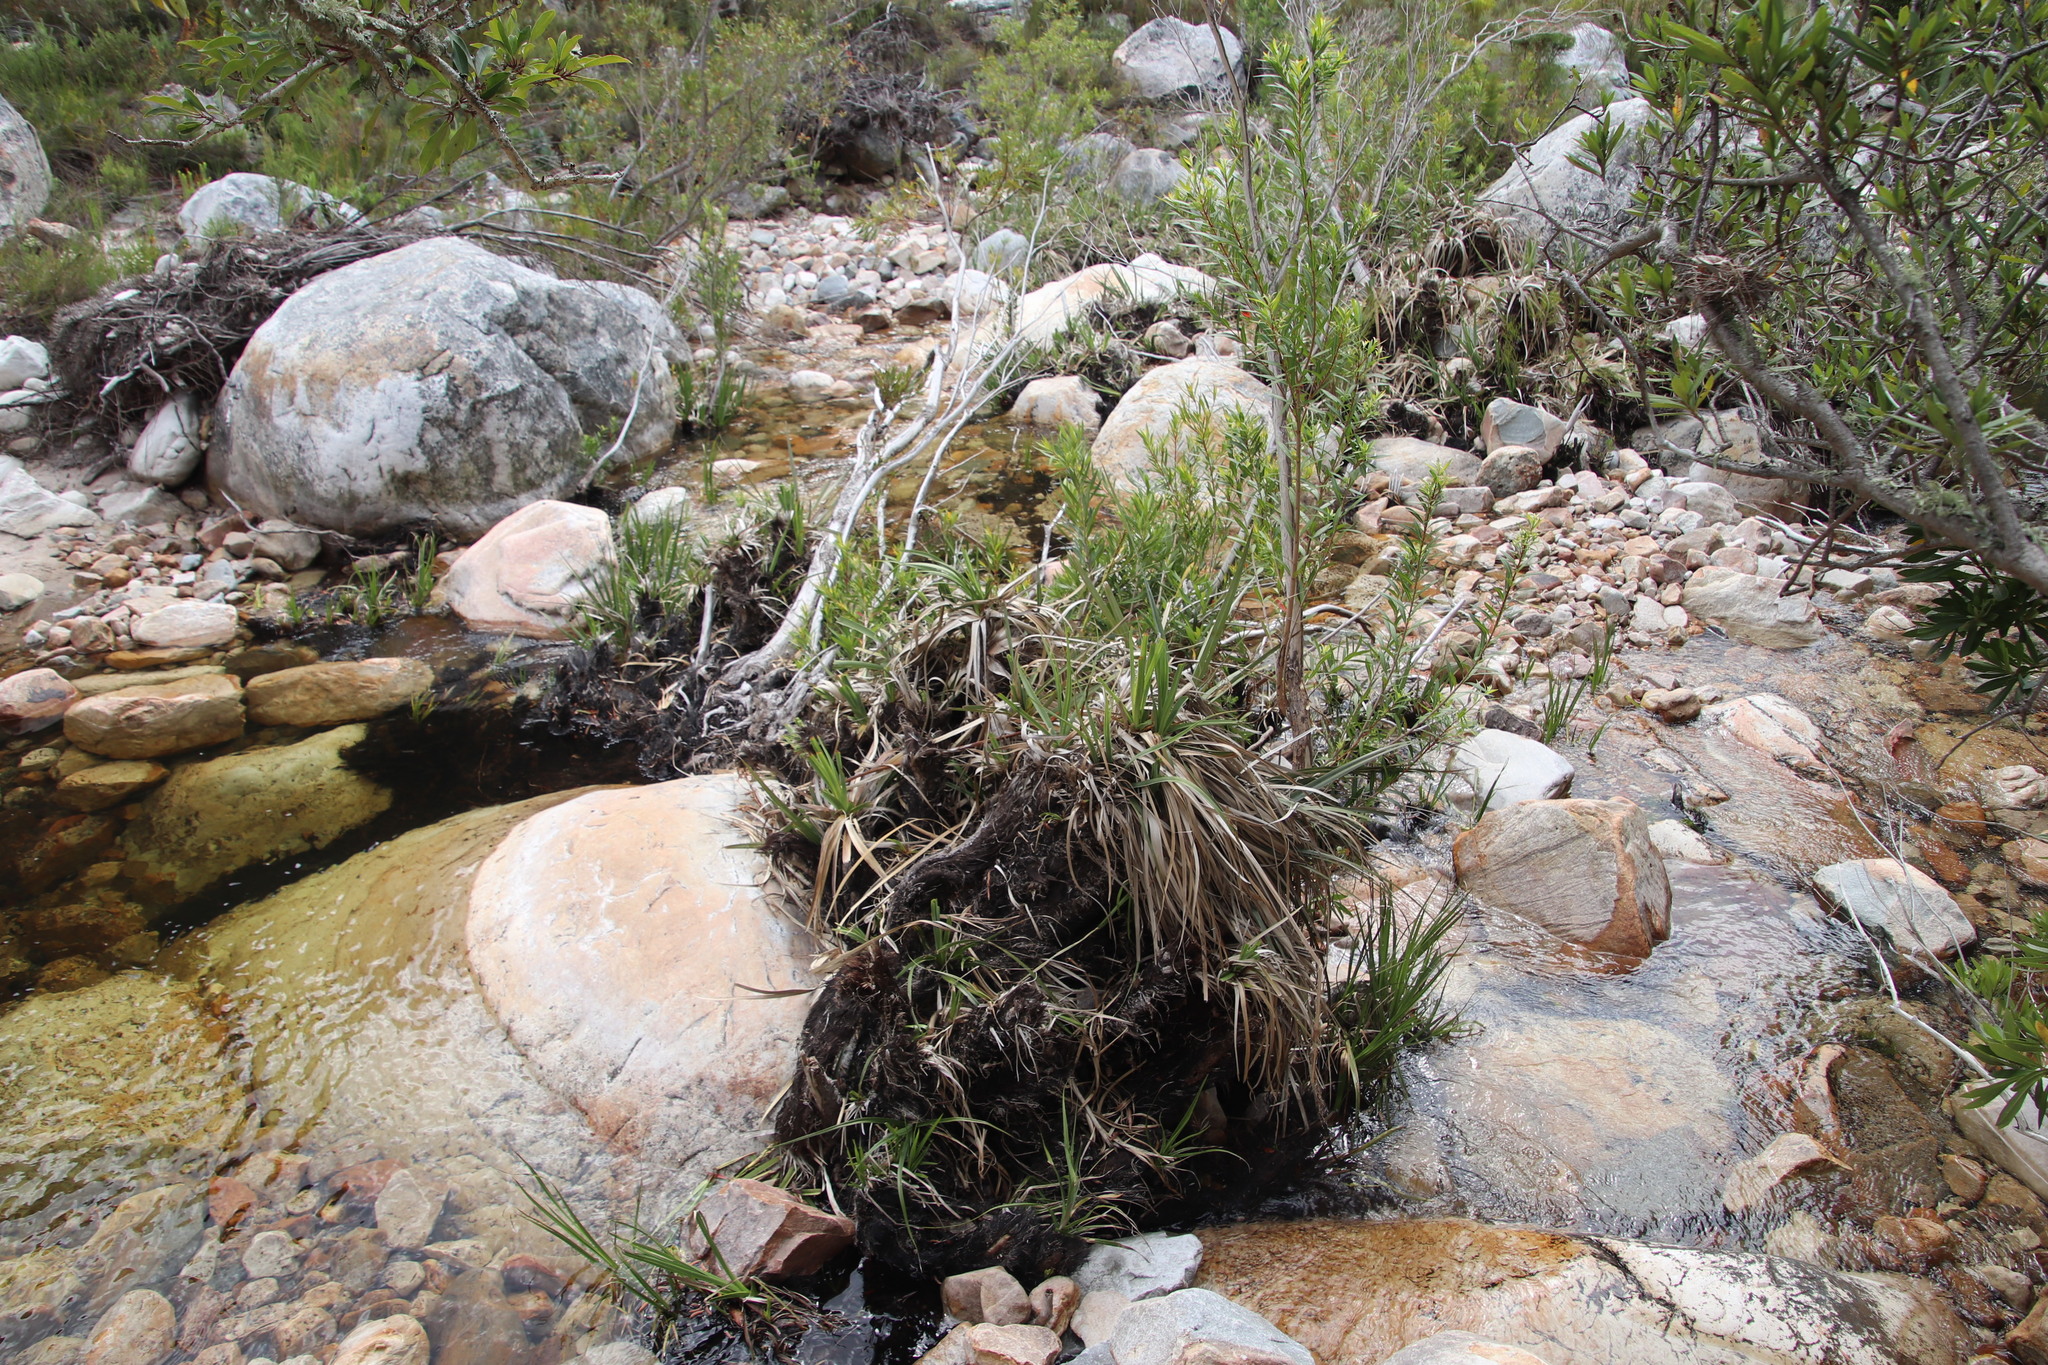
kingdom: Plantae
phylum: Tracheophyta
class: Liliopsida
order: Poales
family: Thurniaceae
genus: Prionium
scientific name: Prionium serratum
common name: Palmiet
